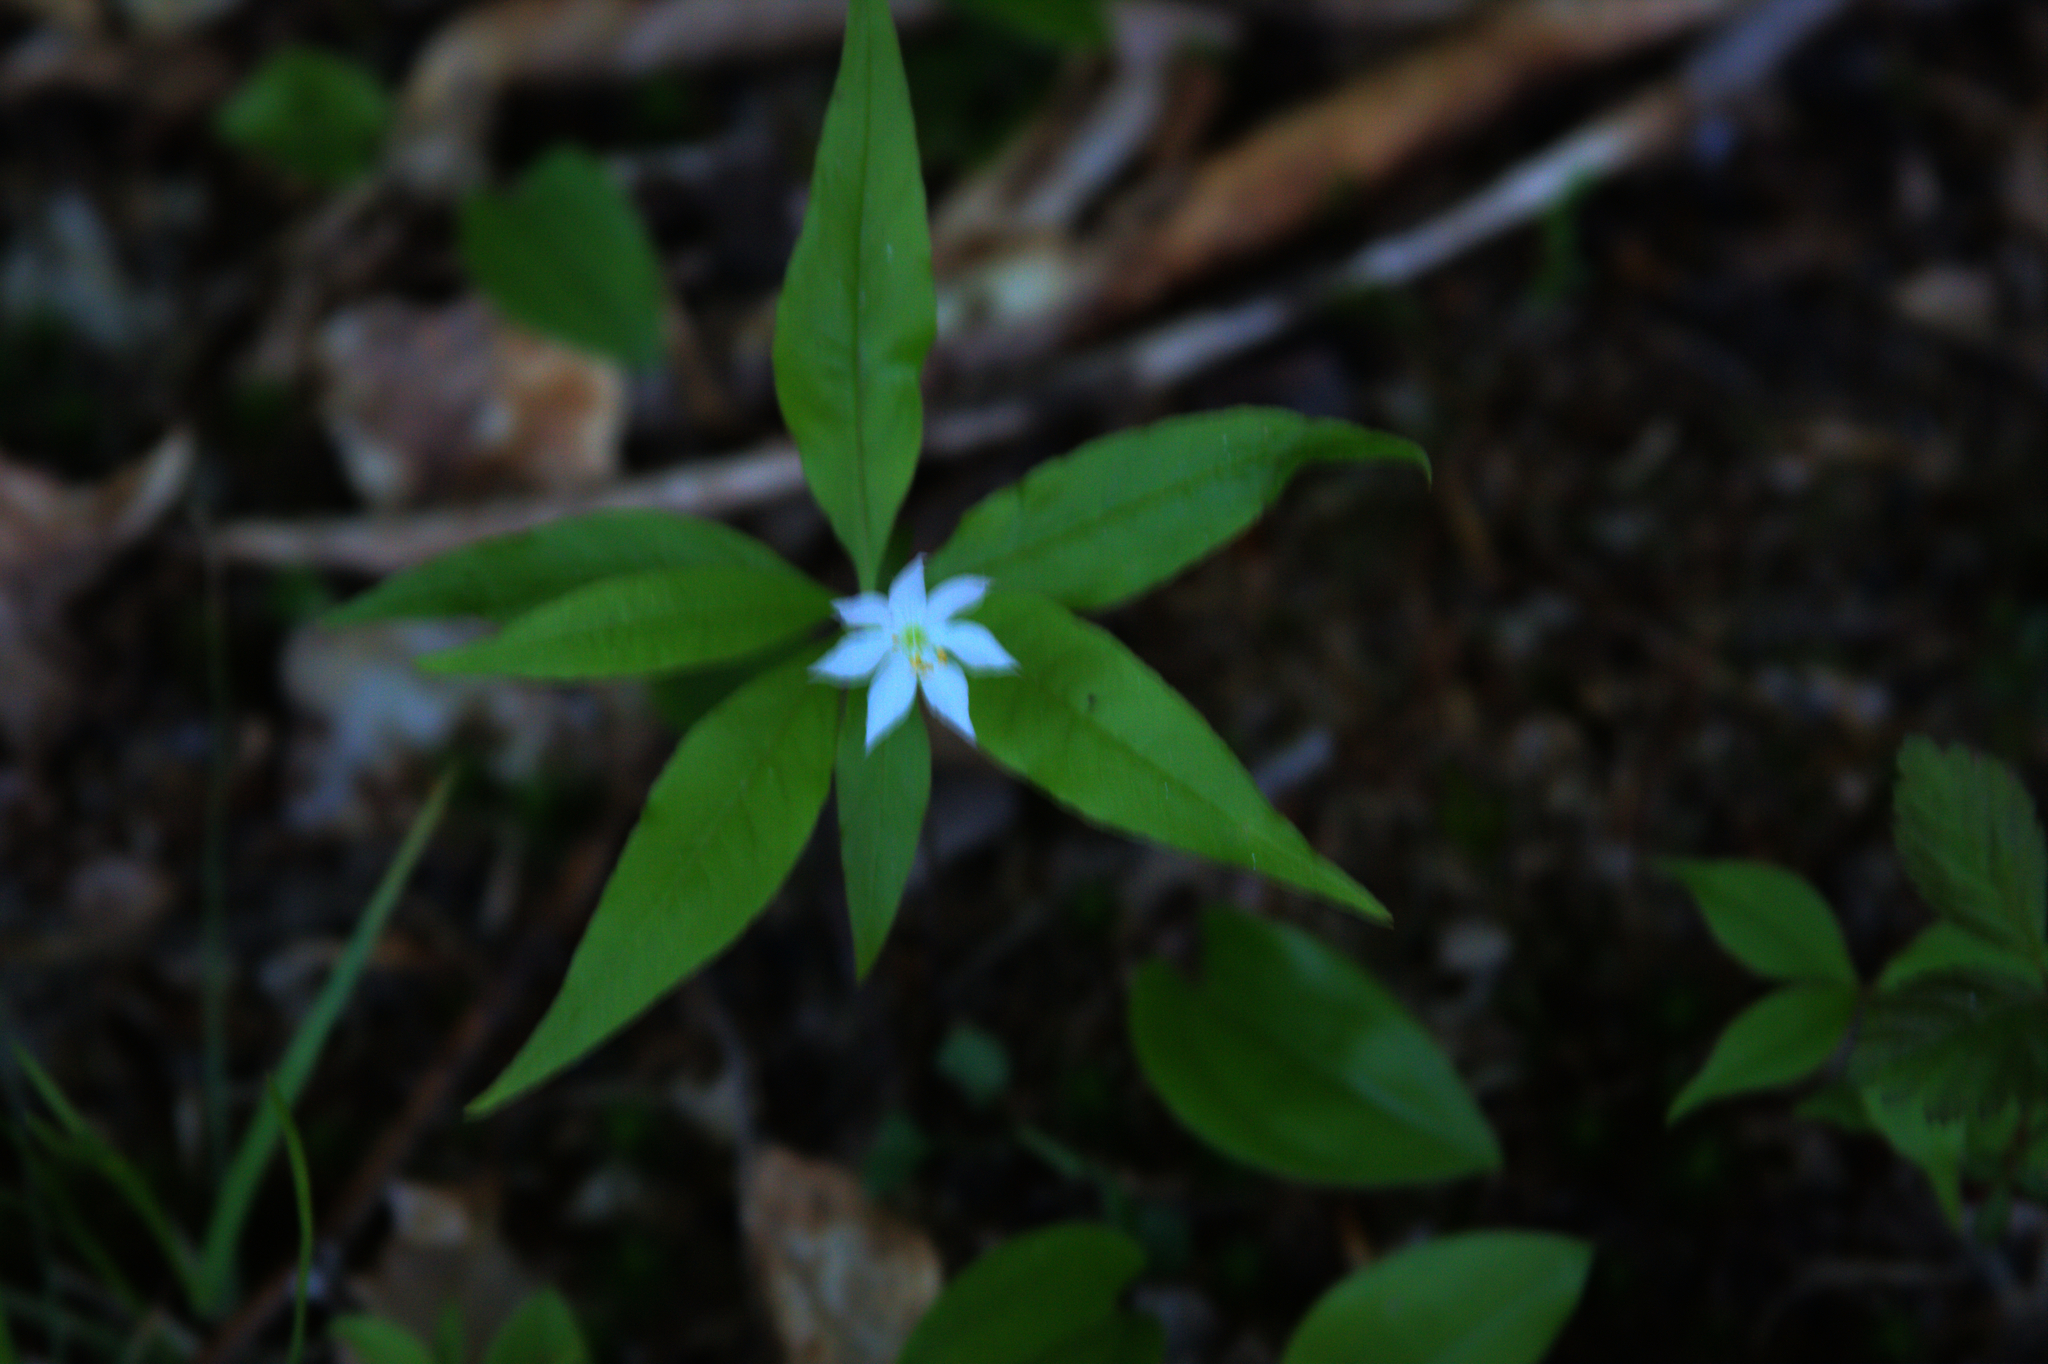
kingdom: Plantae
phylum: Tracheophyta
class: Magnoliopsida
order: Ericales
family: Primulaceae
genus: Lysimachia
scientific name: Lysimachia borealis
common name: American starflower
